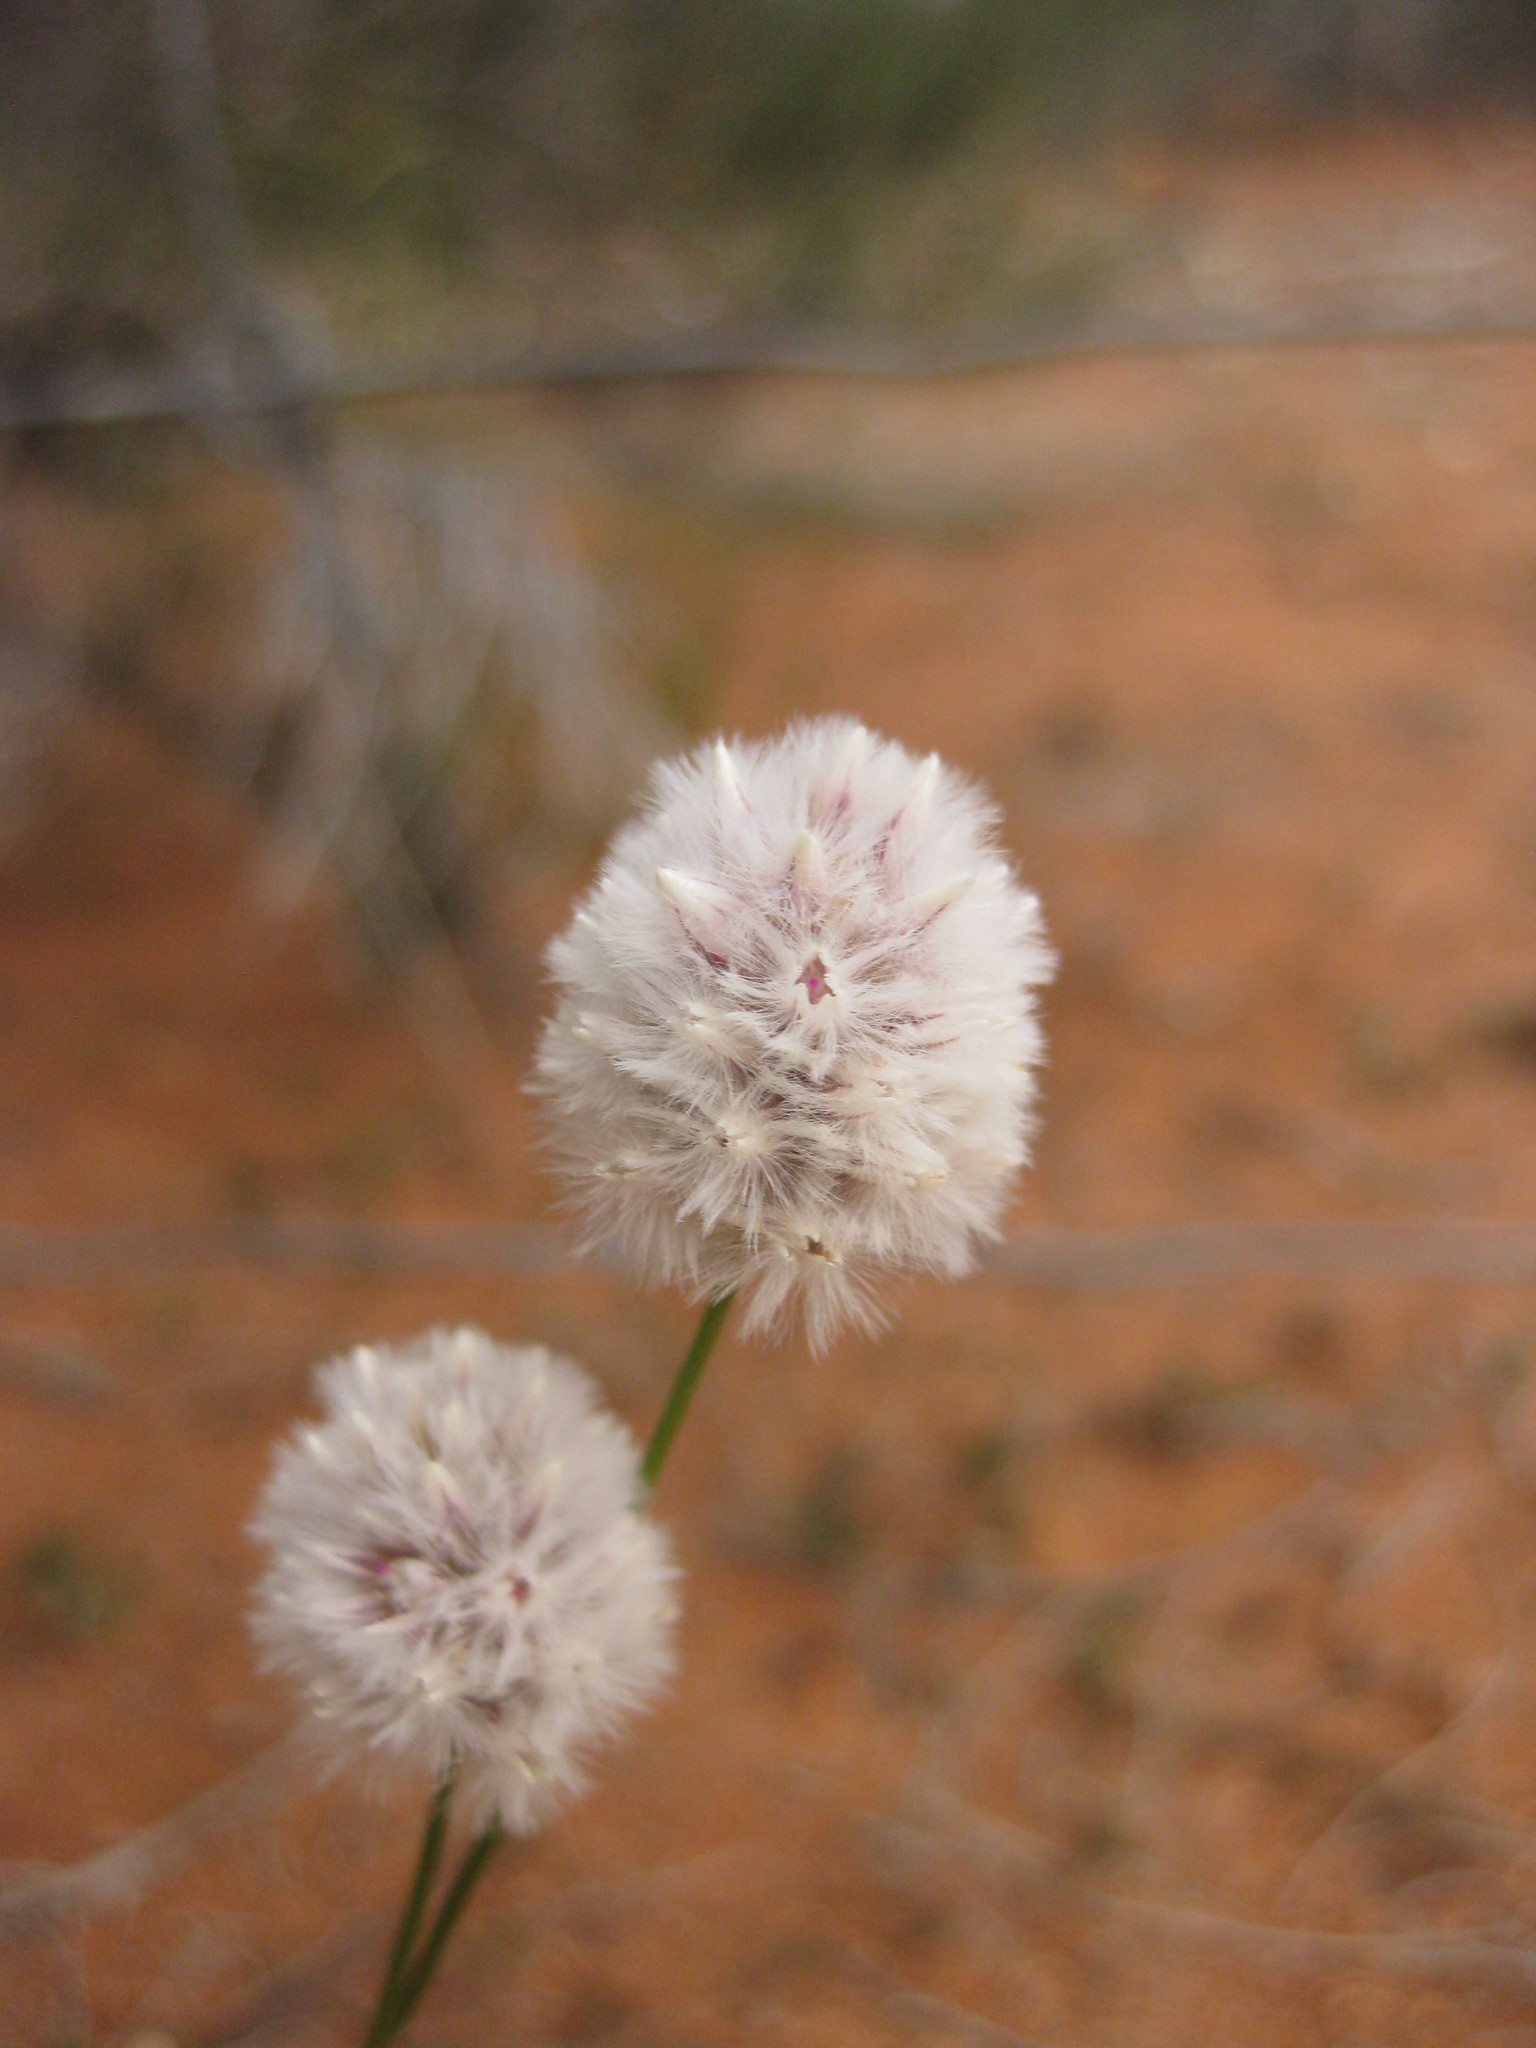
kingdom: Plantae
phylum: Tracheophyta
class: Magnoliopsida
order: Caryophyllales
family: Amaranthaceae
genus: Ptilotus
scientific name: Ptilotus schwartzii
